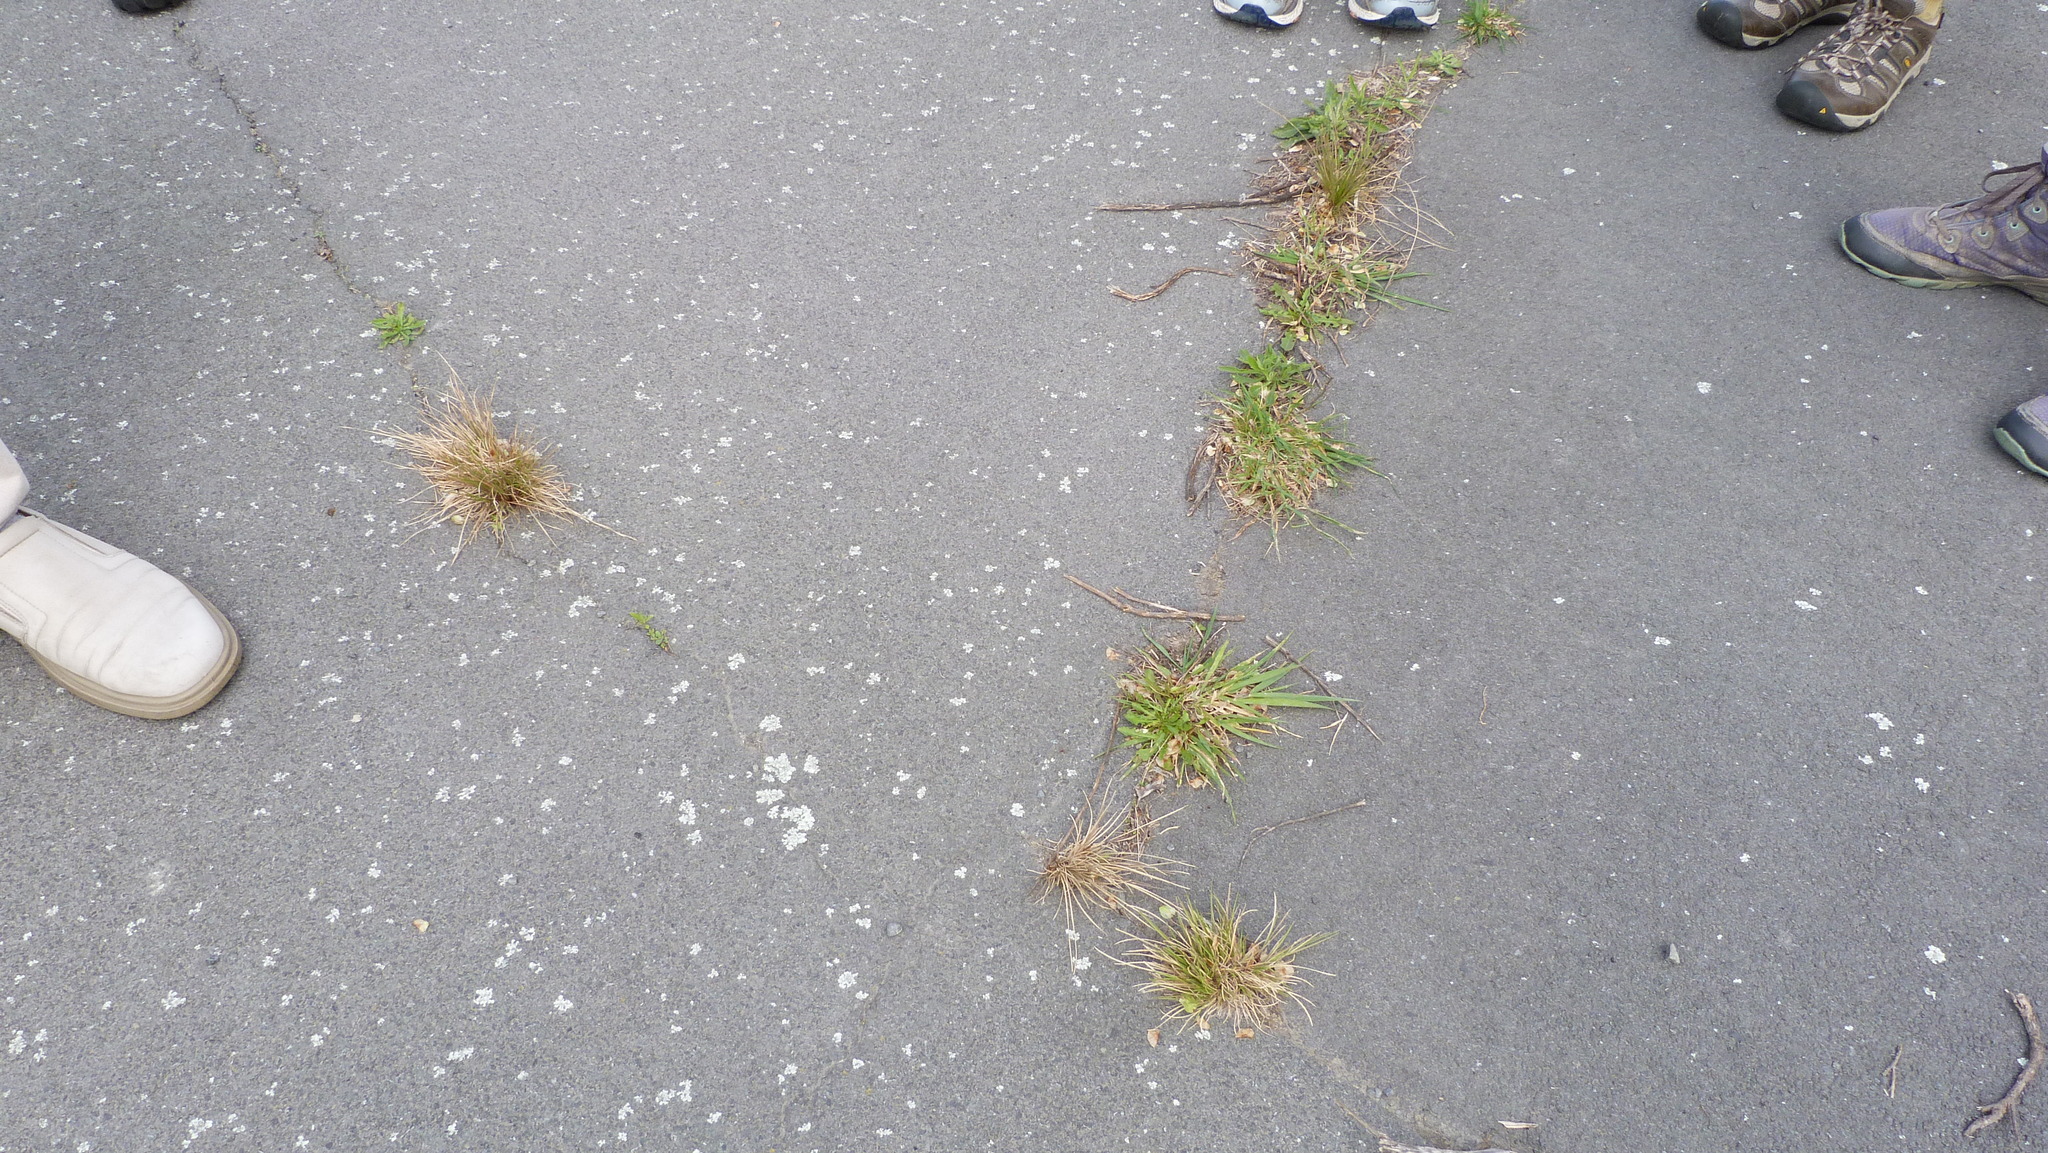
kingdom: Plantae
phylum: Tracheophyta
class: Liliopsida
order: Poales
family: Poaceae
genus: Poa
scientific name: Poa cita
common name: Silver tussock
